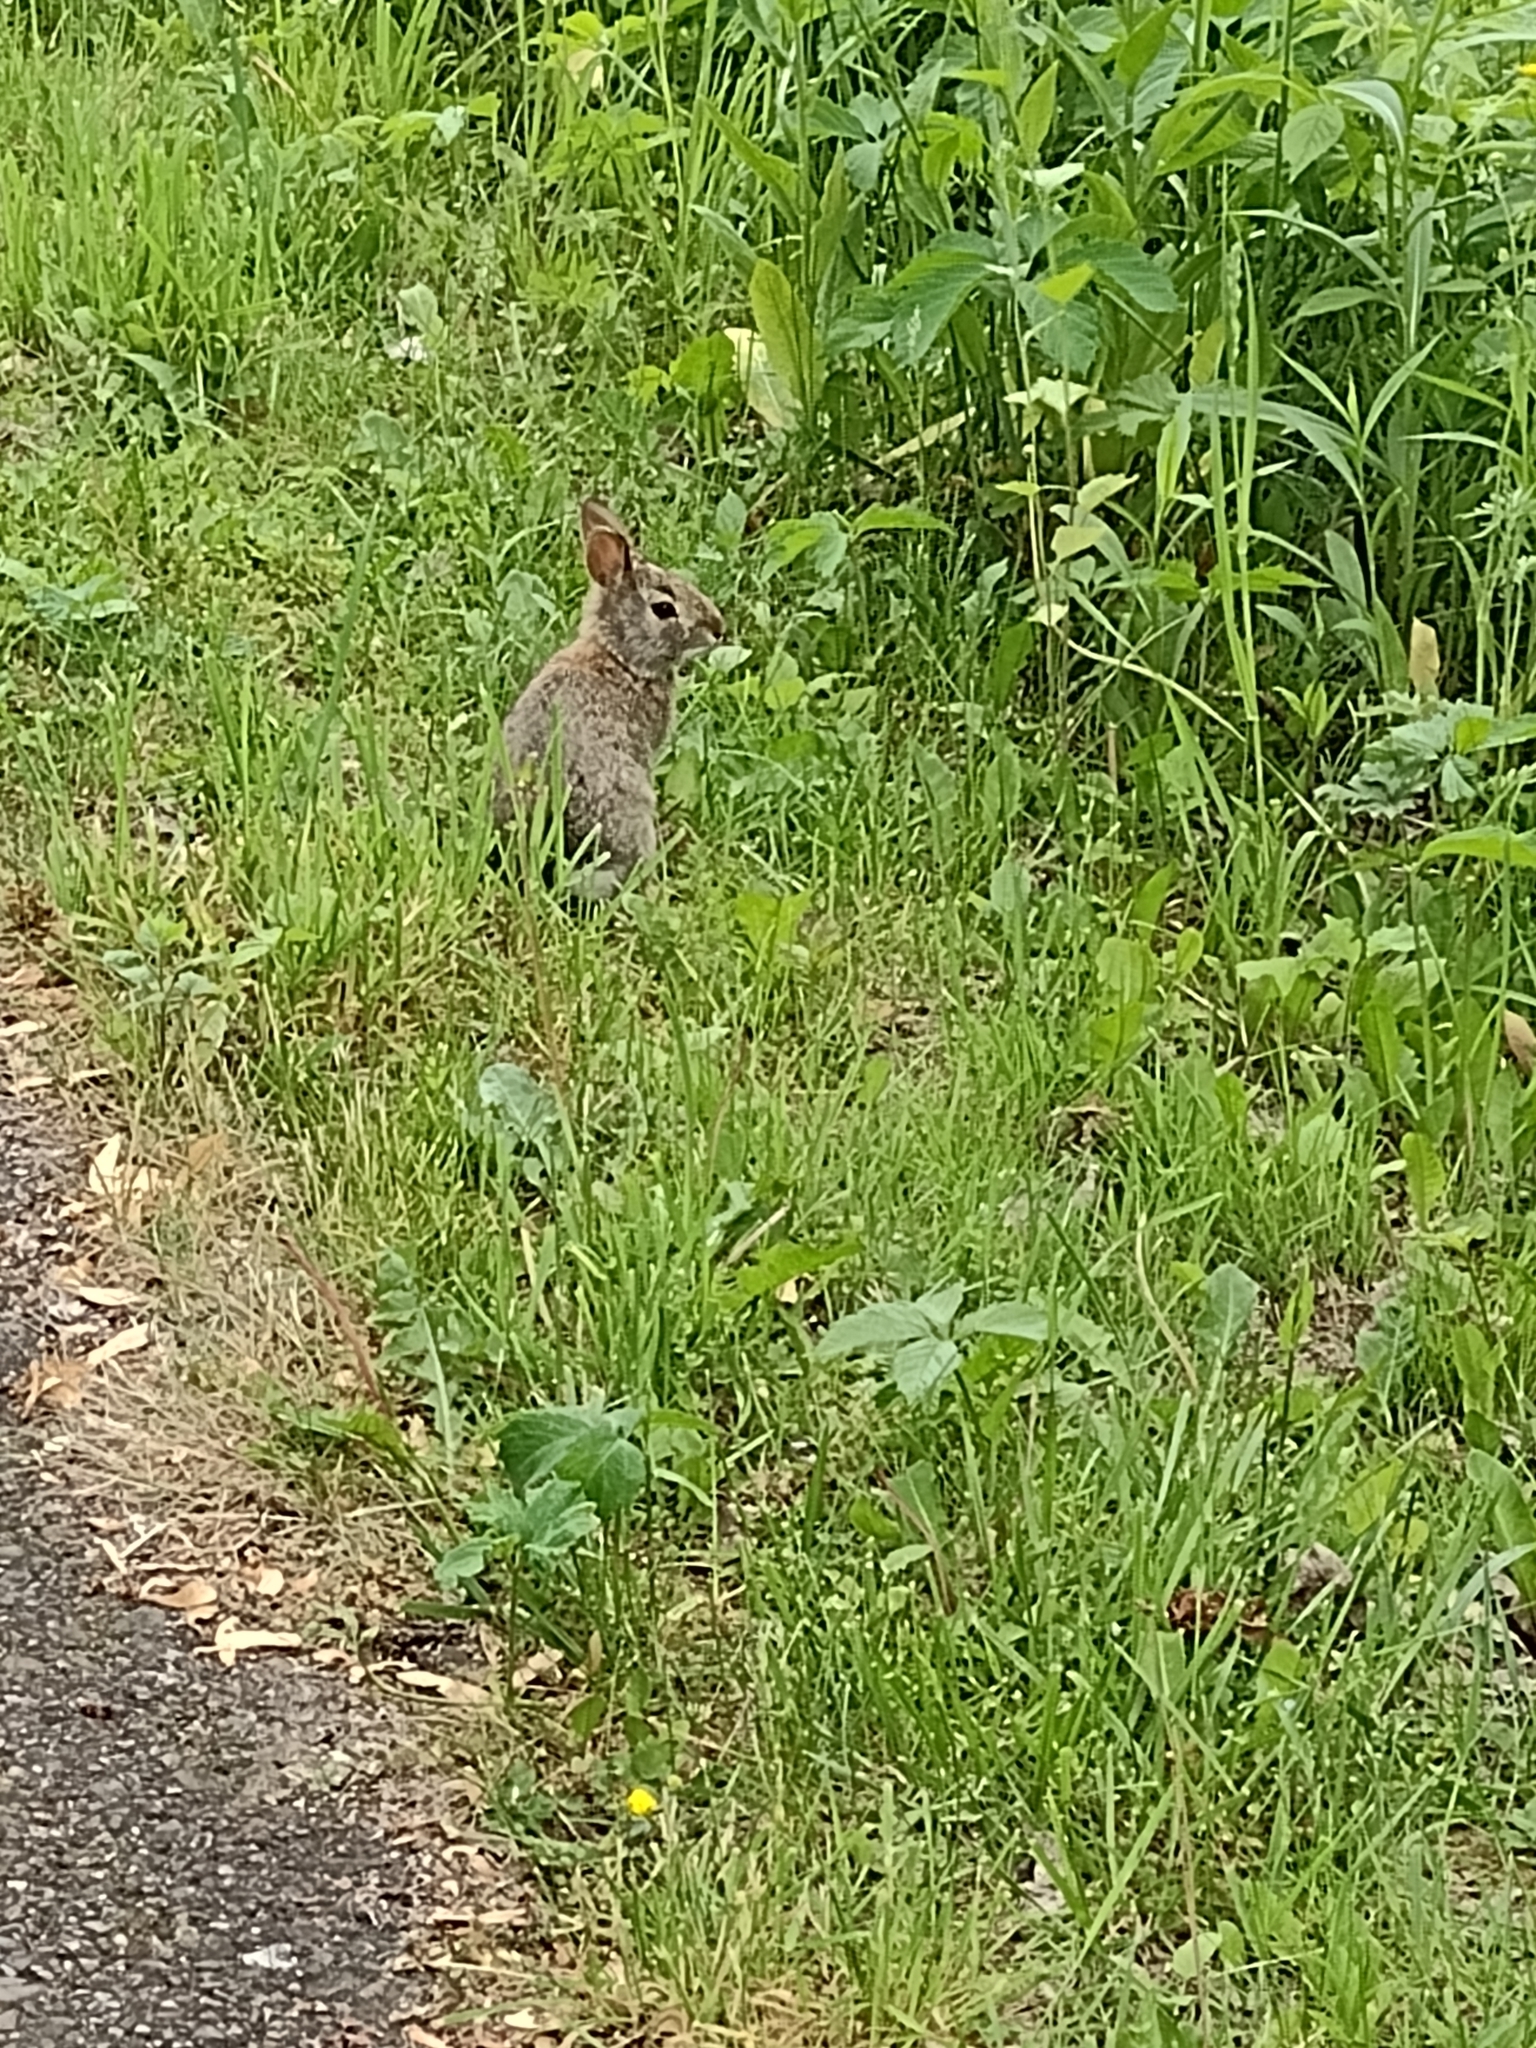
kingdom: Animalia
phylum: Chordata
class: Mammalia
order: Lagomorpha
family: Leporidae
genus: Sylvilagus
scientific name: Sylvilagus floridanus
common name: Eastern cottontail
